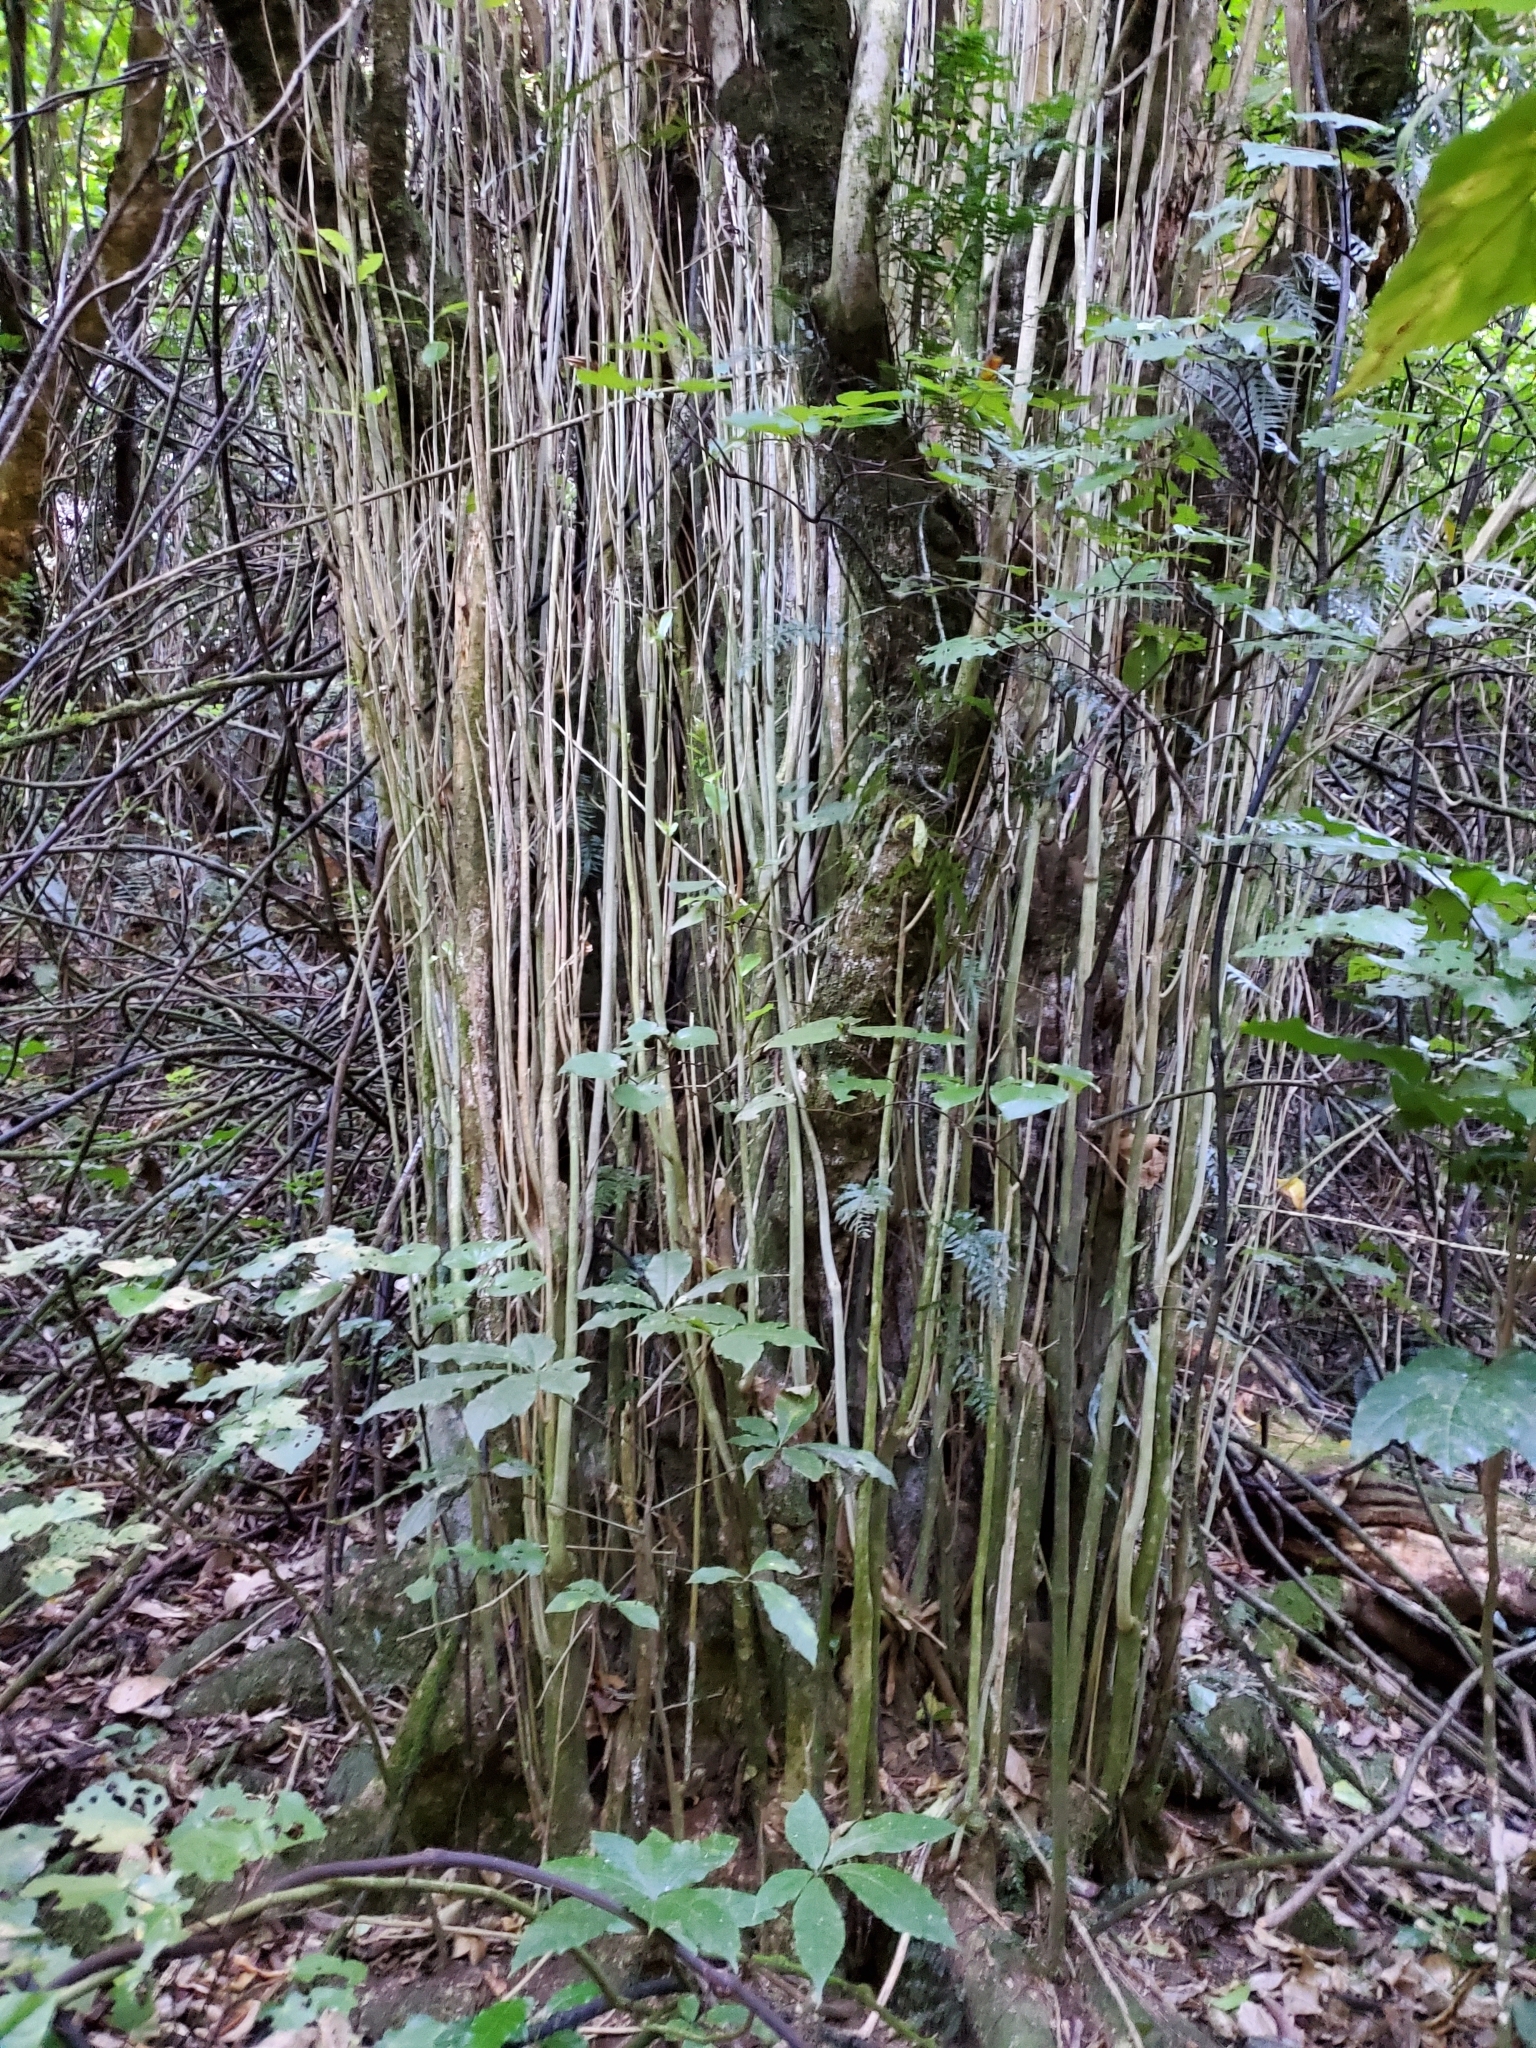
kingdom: Plantae
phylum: Tracheophyta
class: Magnoliopsida
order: Malpighiales
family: Violaceae
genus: Melicytus
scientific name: Melicytus ramiflorus
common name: Mahoe
